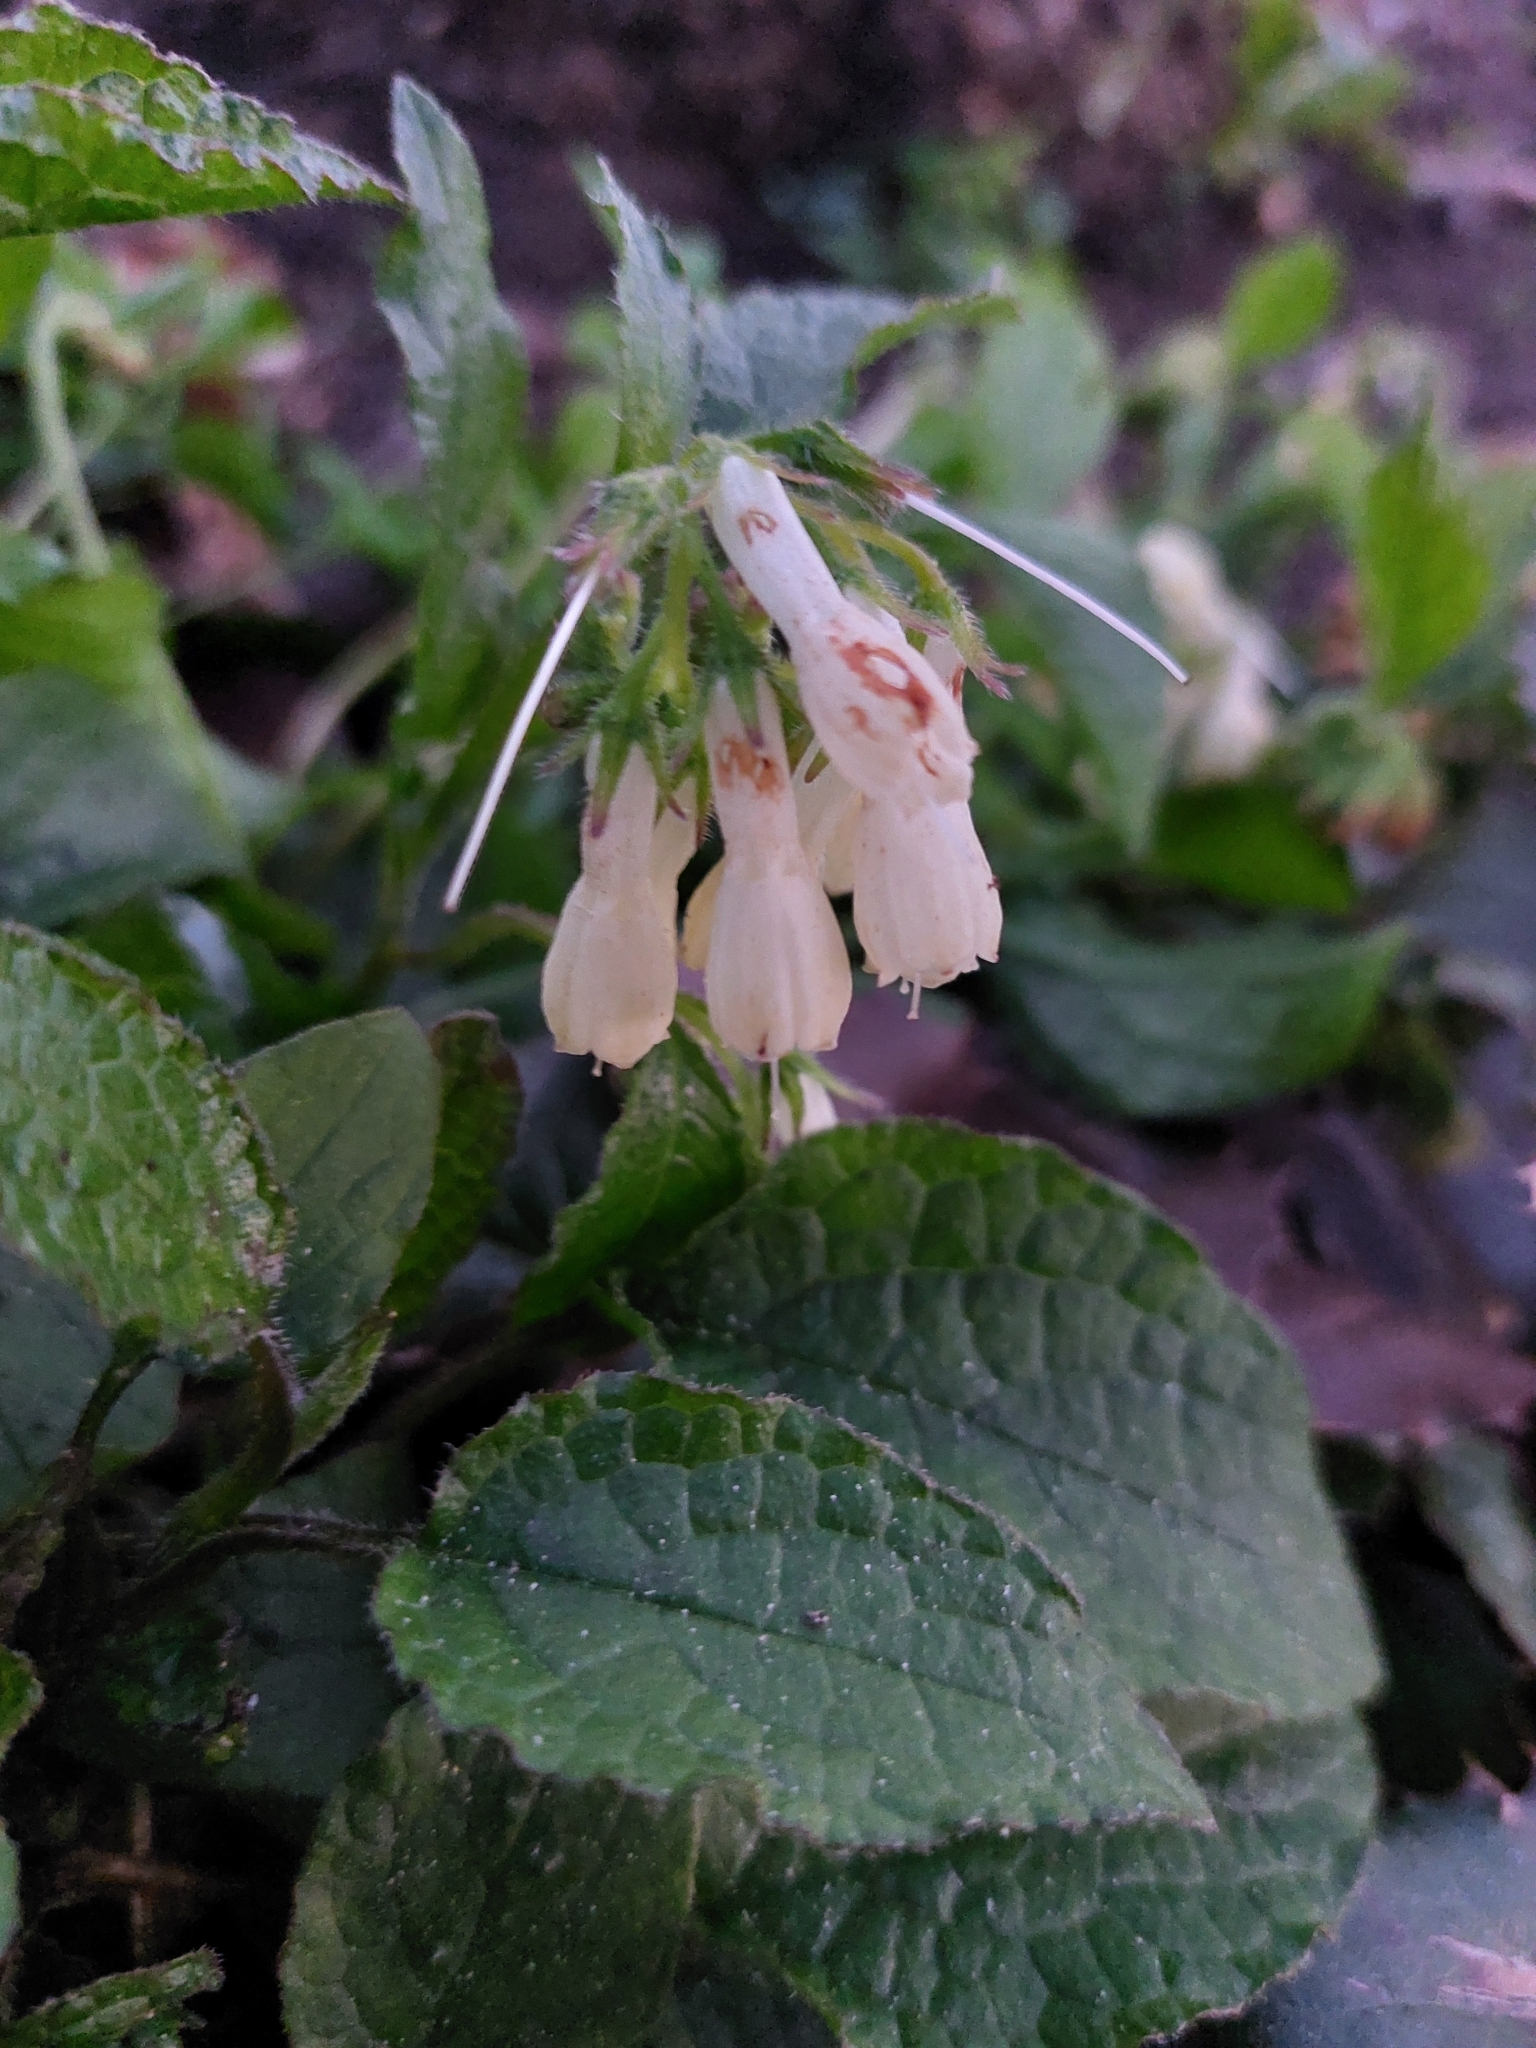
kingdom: Plantae
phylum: Tracheophyta
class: Magnoliopsida
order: Boraginales
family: Boraginaceae
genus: Symphytum
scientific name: Symphytum grandiflorum
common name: Creeping comfrey
